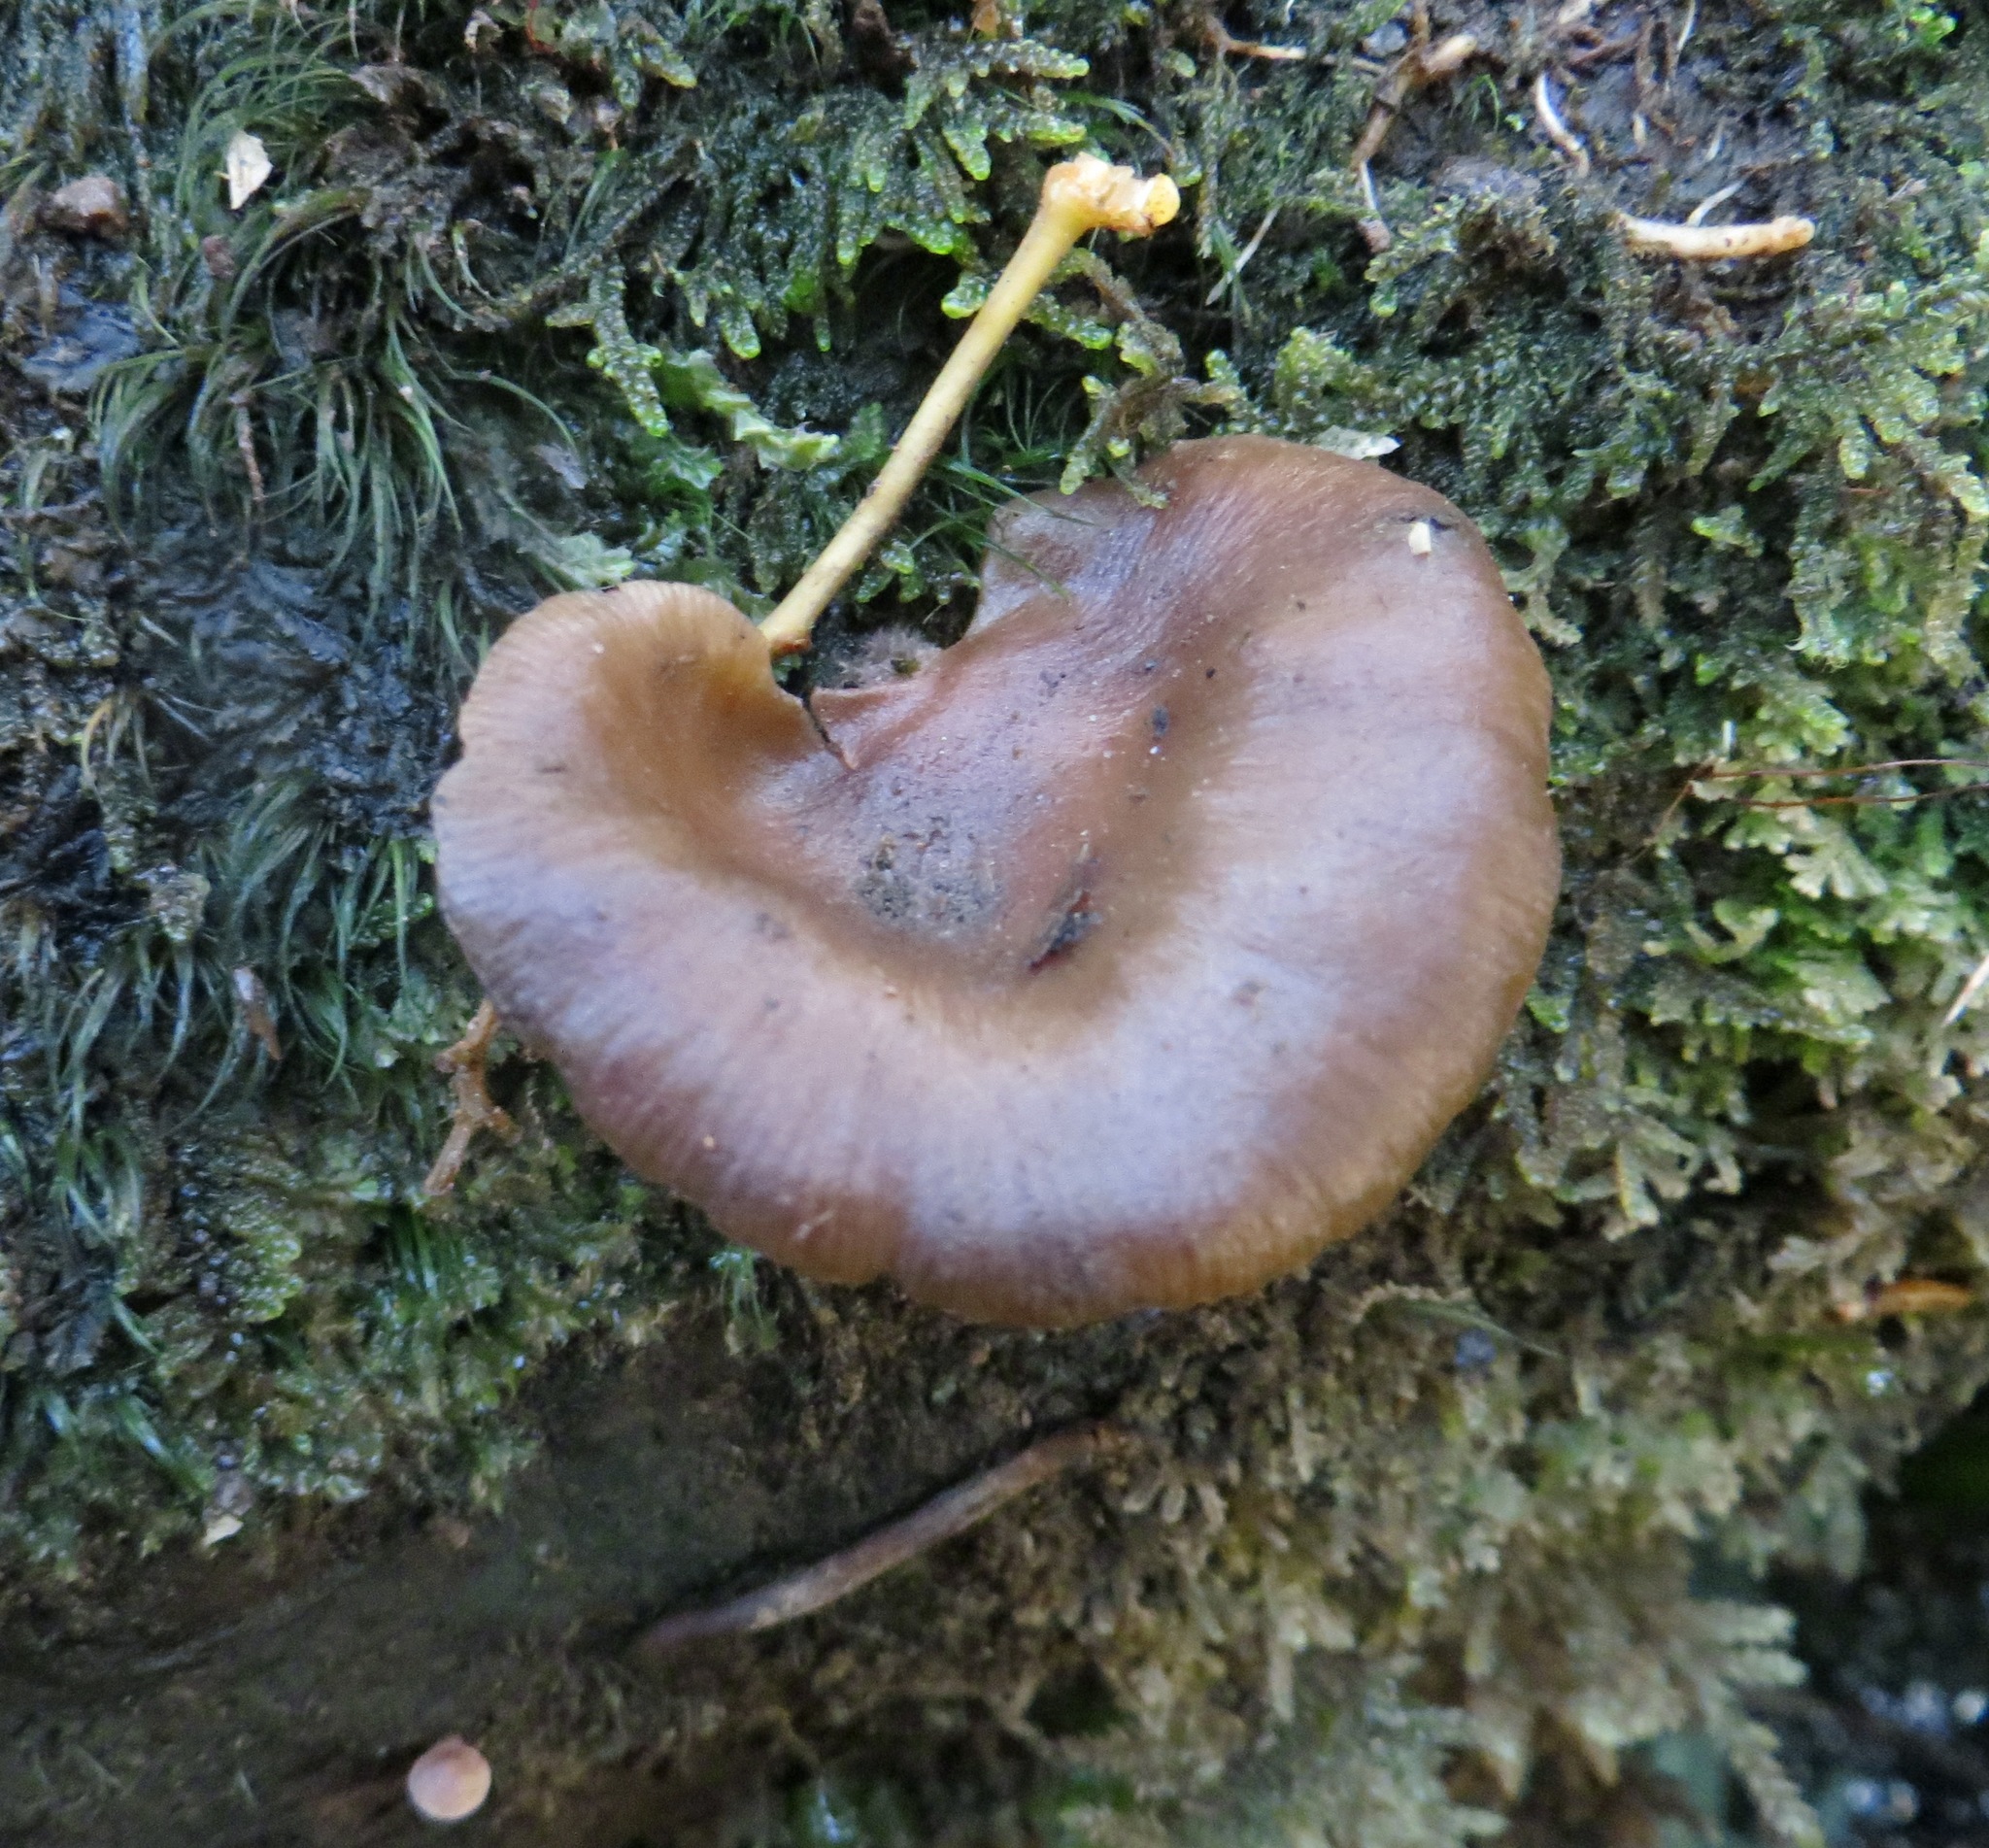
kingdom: Fungi
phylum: Basidiomycota
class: Agaricomycetes
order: Agaricales
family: Mycenaceae
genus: Panellus
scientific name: Panellus longinquus
